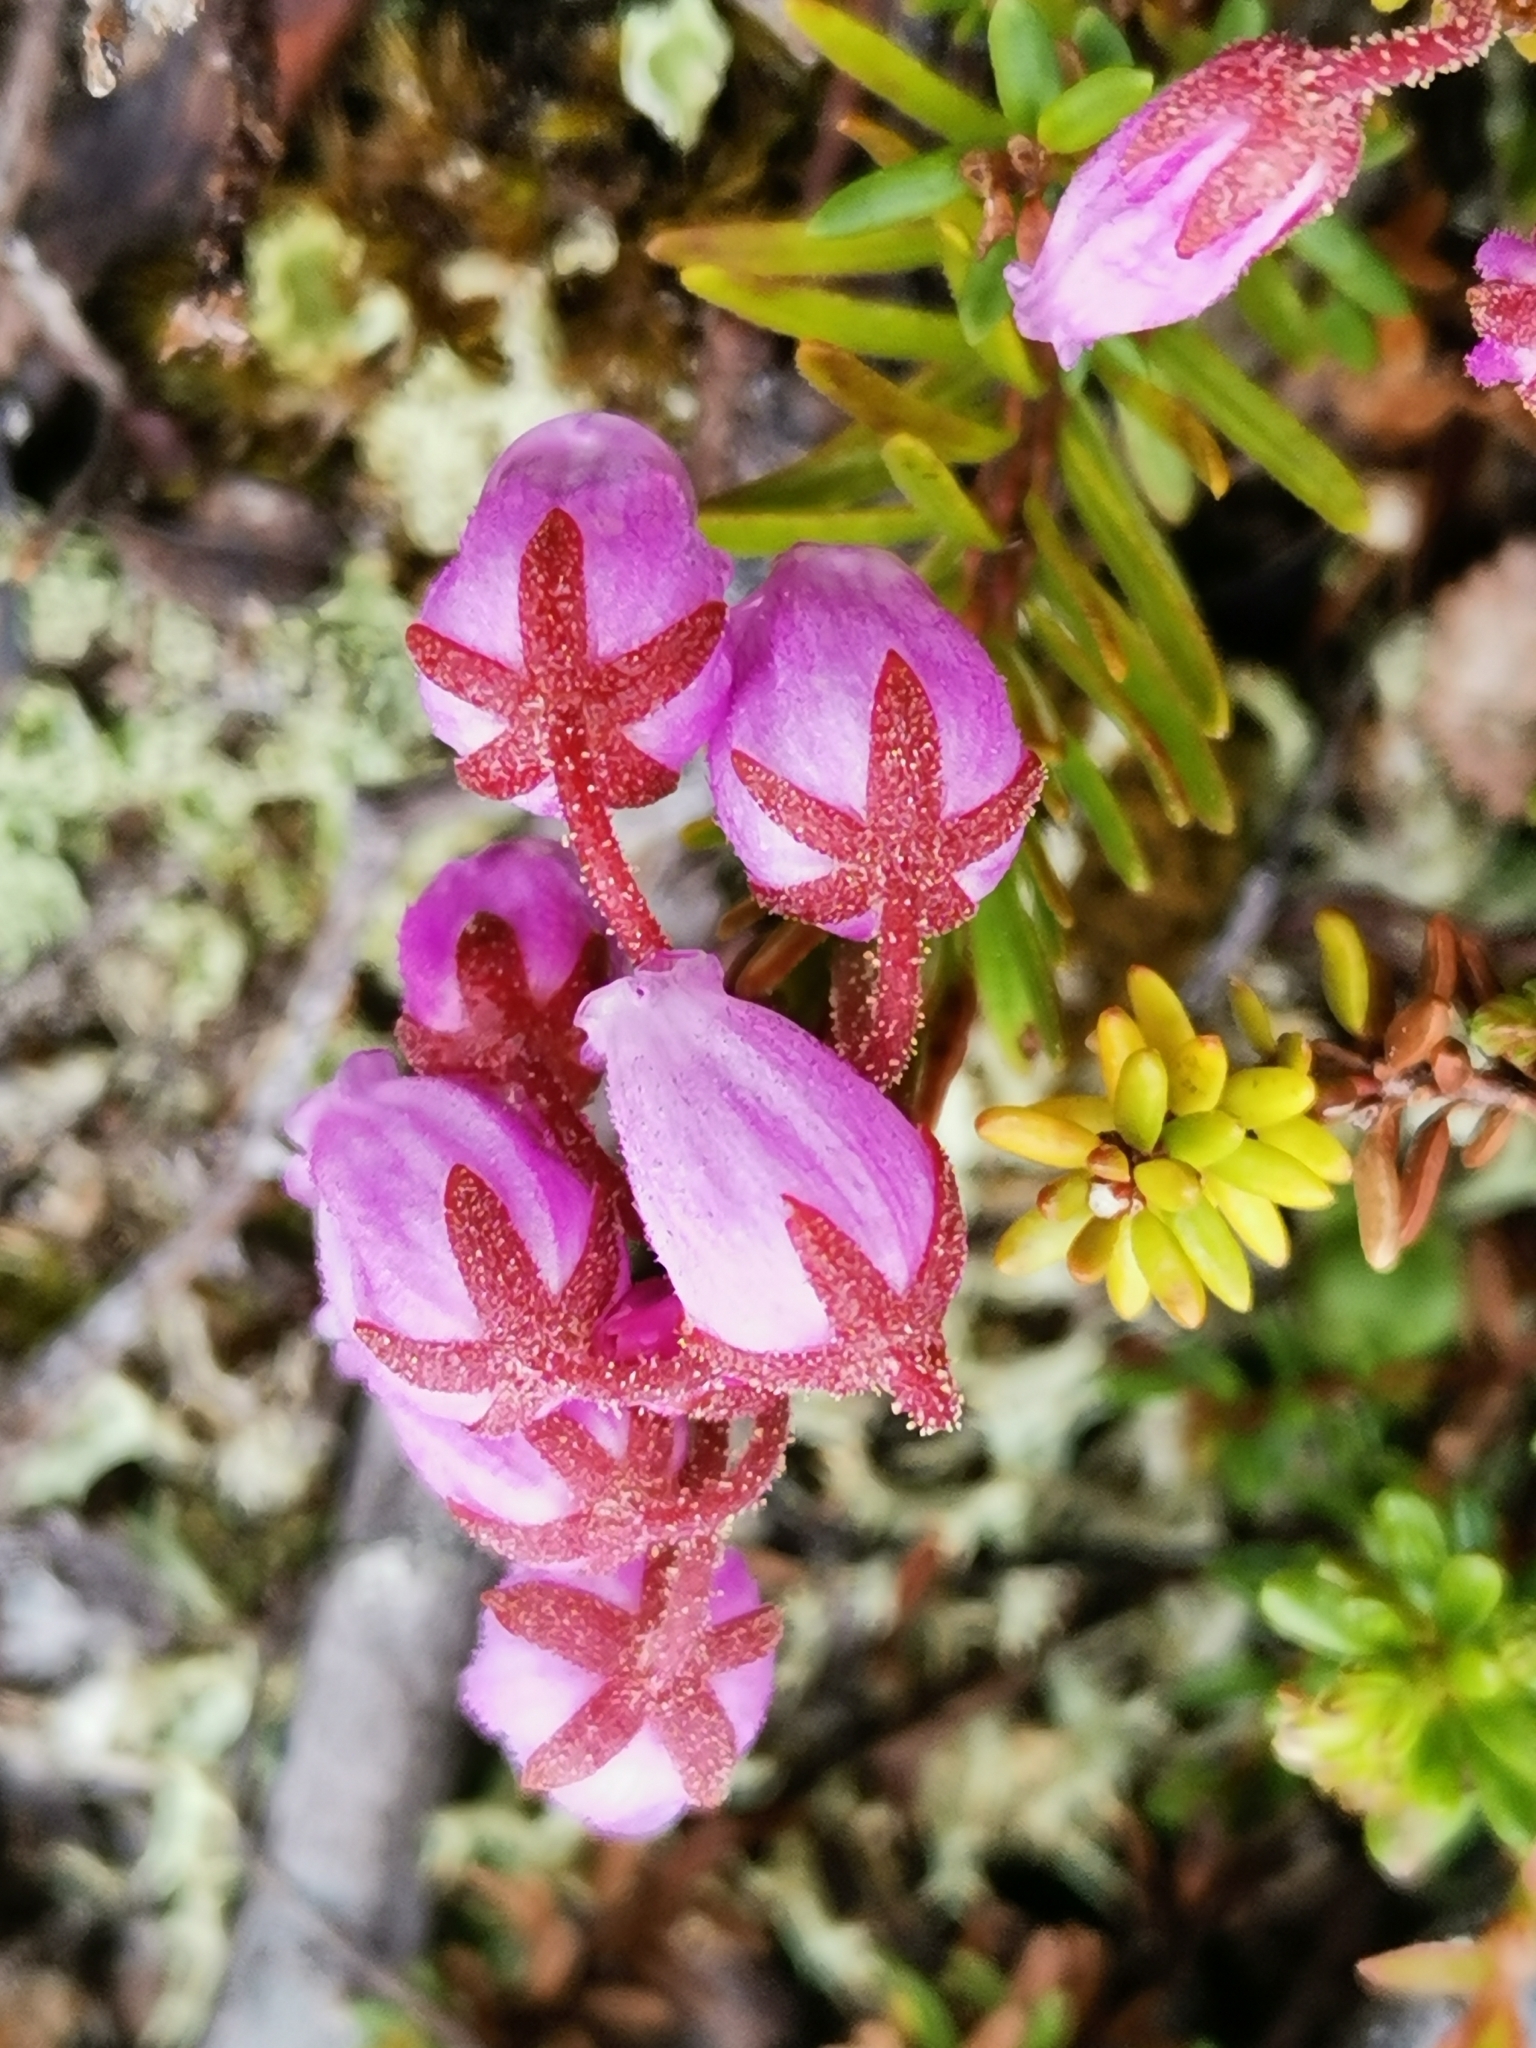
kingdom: Plantae
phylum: Tracheophyta
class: Magnoliopsida
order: Ericales
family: Ericaceae
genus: Phyllodoce
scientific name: Phyllodoce caerulea
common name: Blue heath
